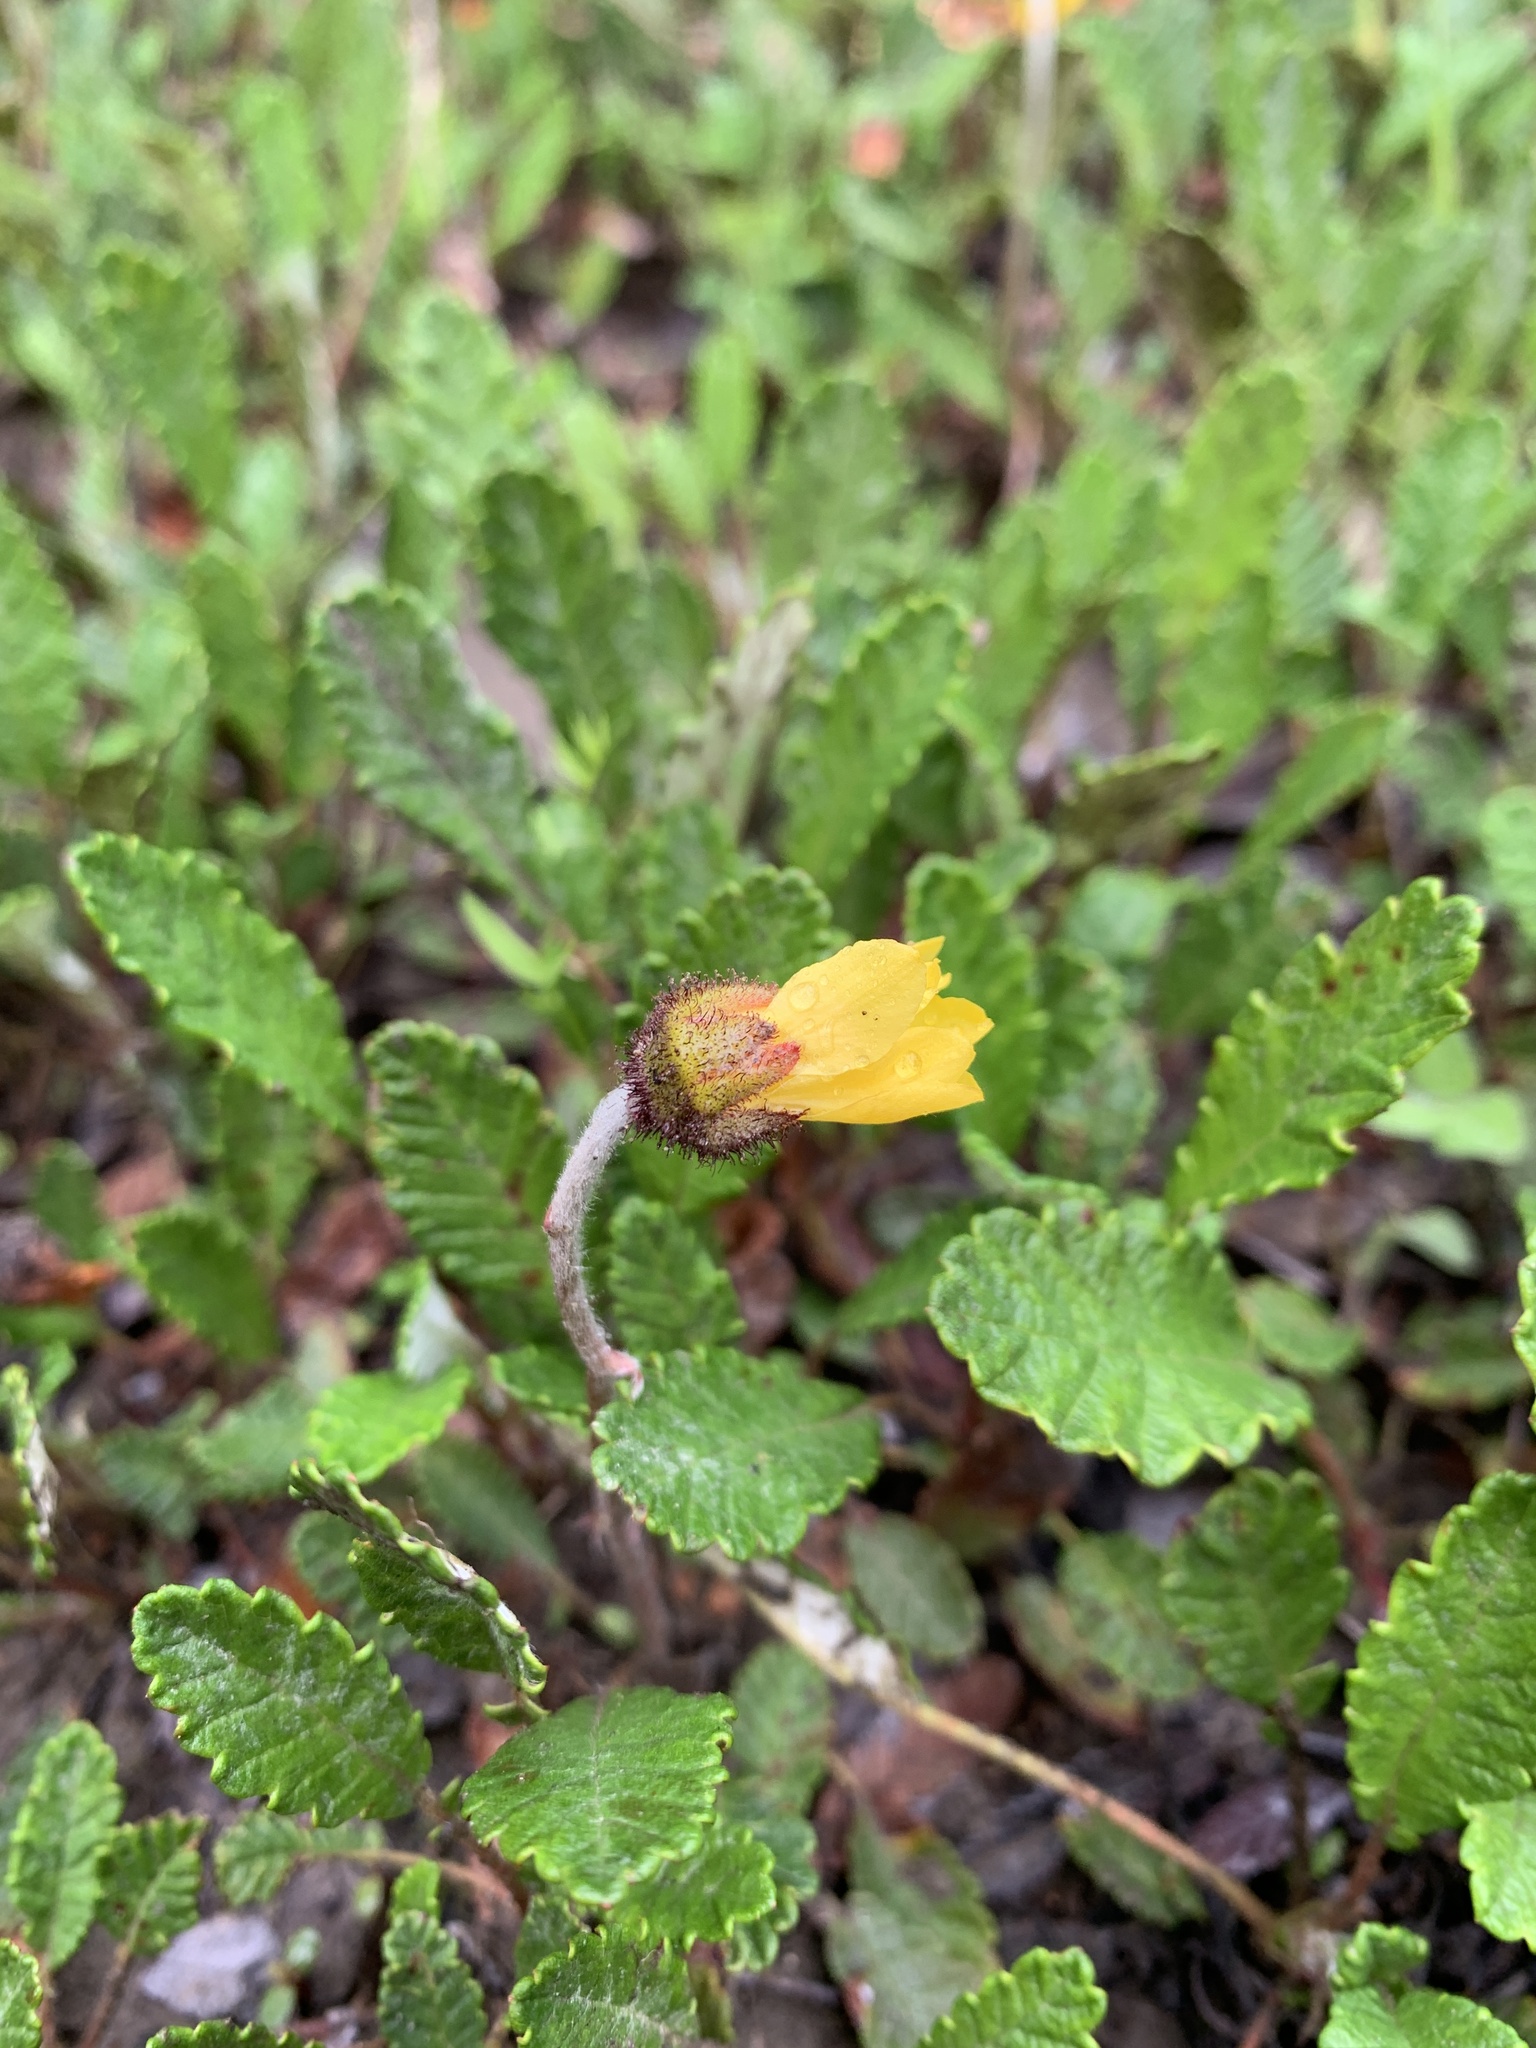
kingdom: Plantae
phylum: Tracheophyta
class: Magnoliopsida
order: Rosales
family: Rosaceae
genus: Dryas
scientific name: Dryas drummondii
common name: Drummond's dryad
